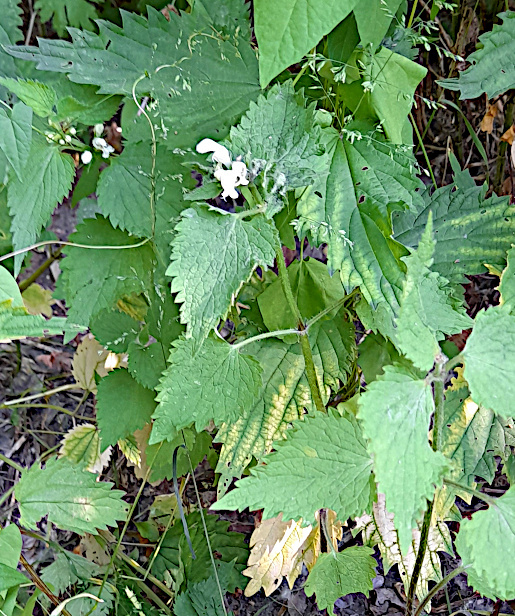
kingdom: Plantae
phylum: Tracheophyta
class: Magnoliopsida
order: Lamiales
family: Lamiaceae
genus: Lamium
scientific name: Lamium album
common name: White dead-nettle
